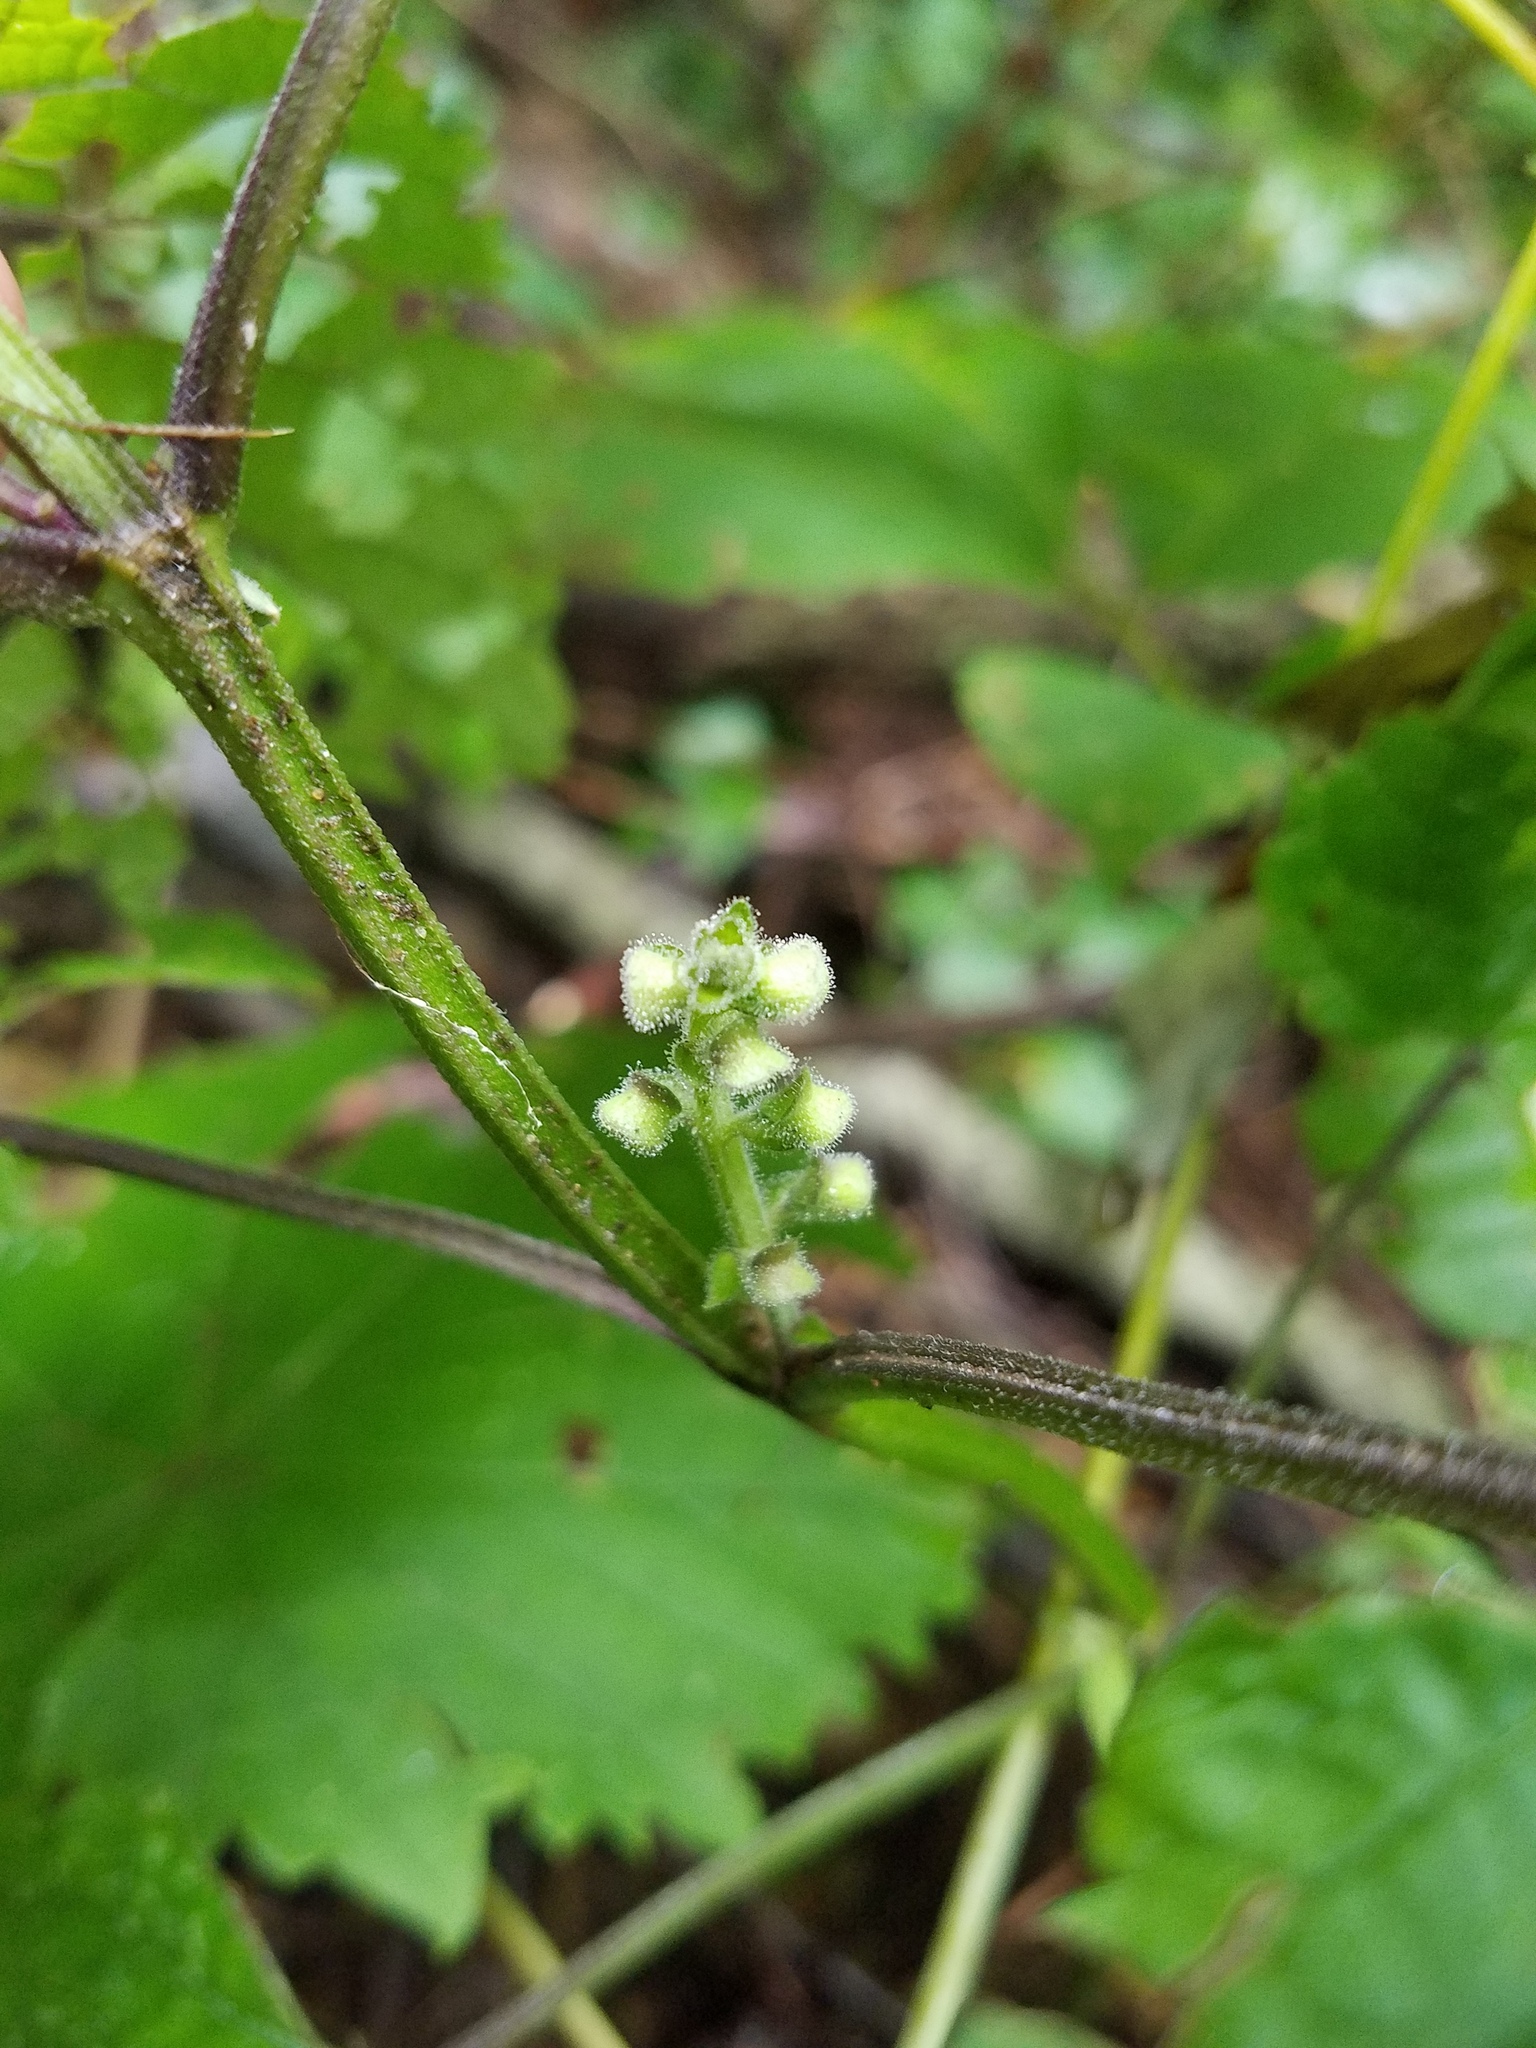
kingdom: Plantae
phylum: Tracheophyta
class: Magnoliopsida
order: Lamiales
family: Lamiaceae
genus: Scutellaria
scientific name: Scutellaria ovata
